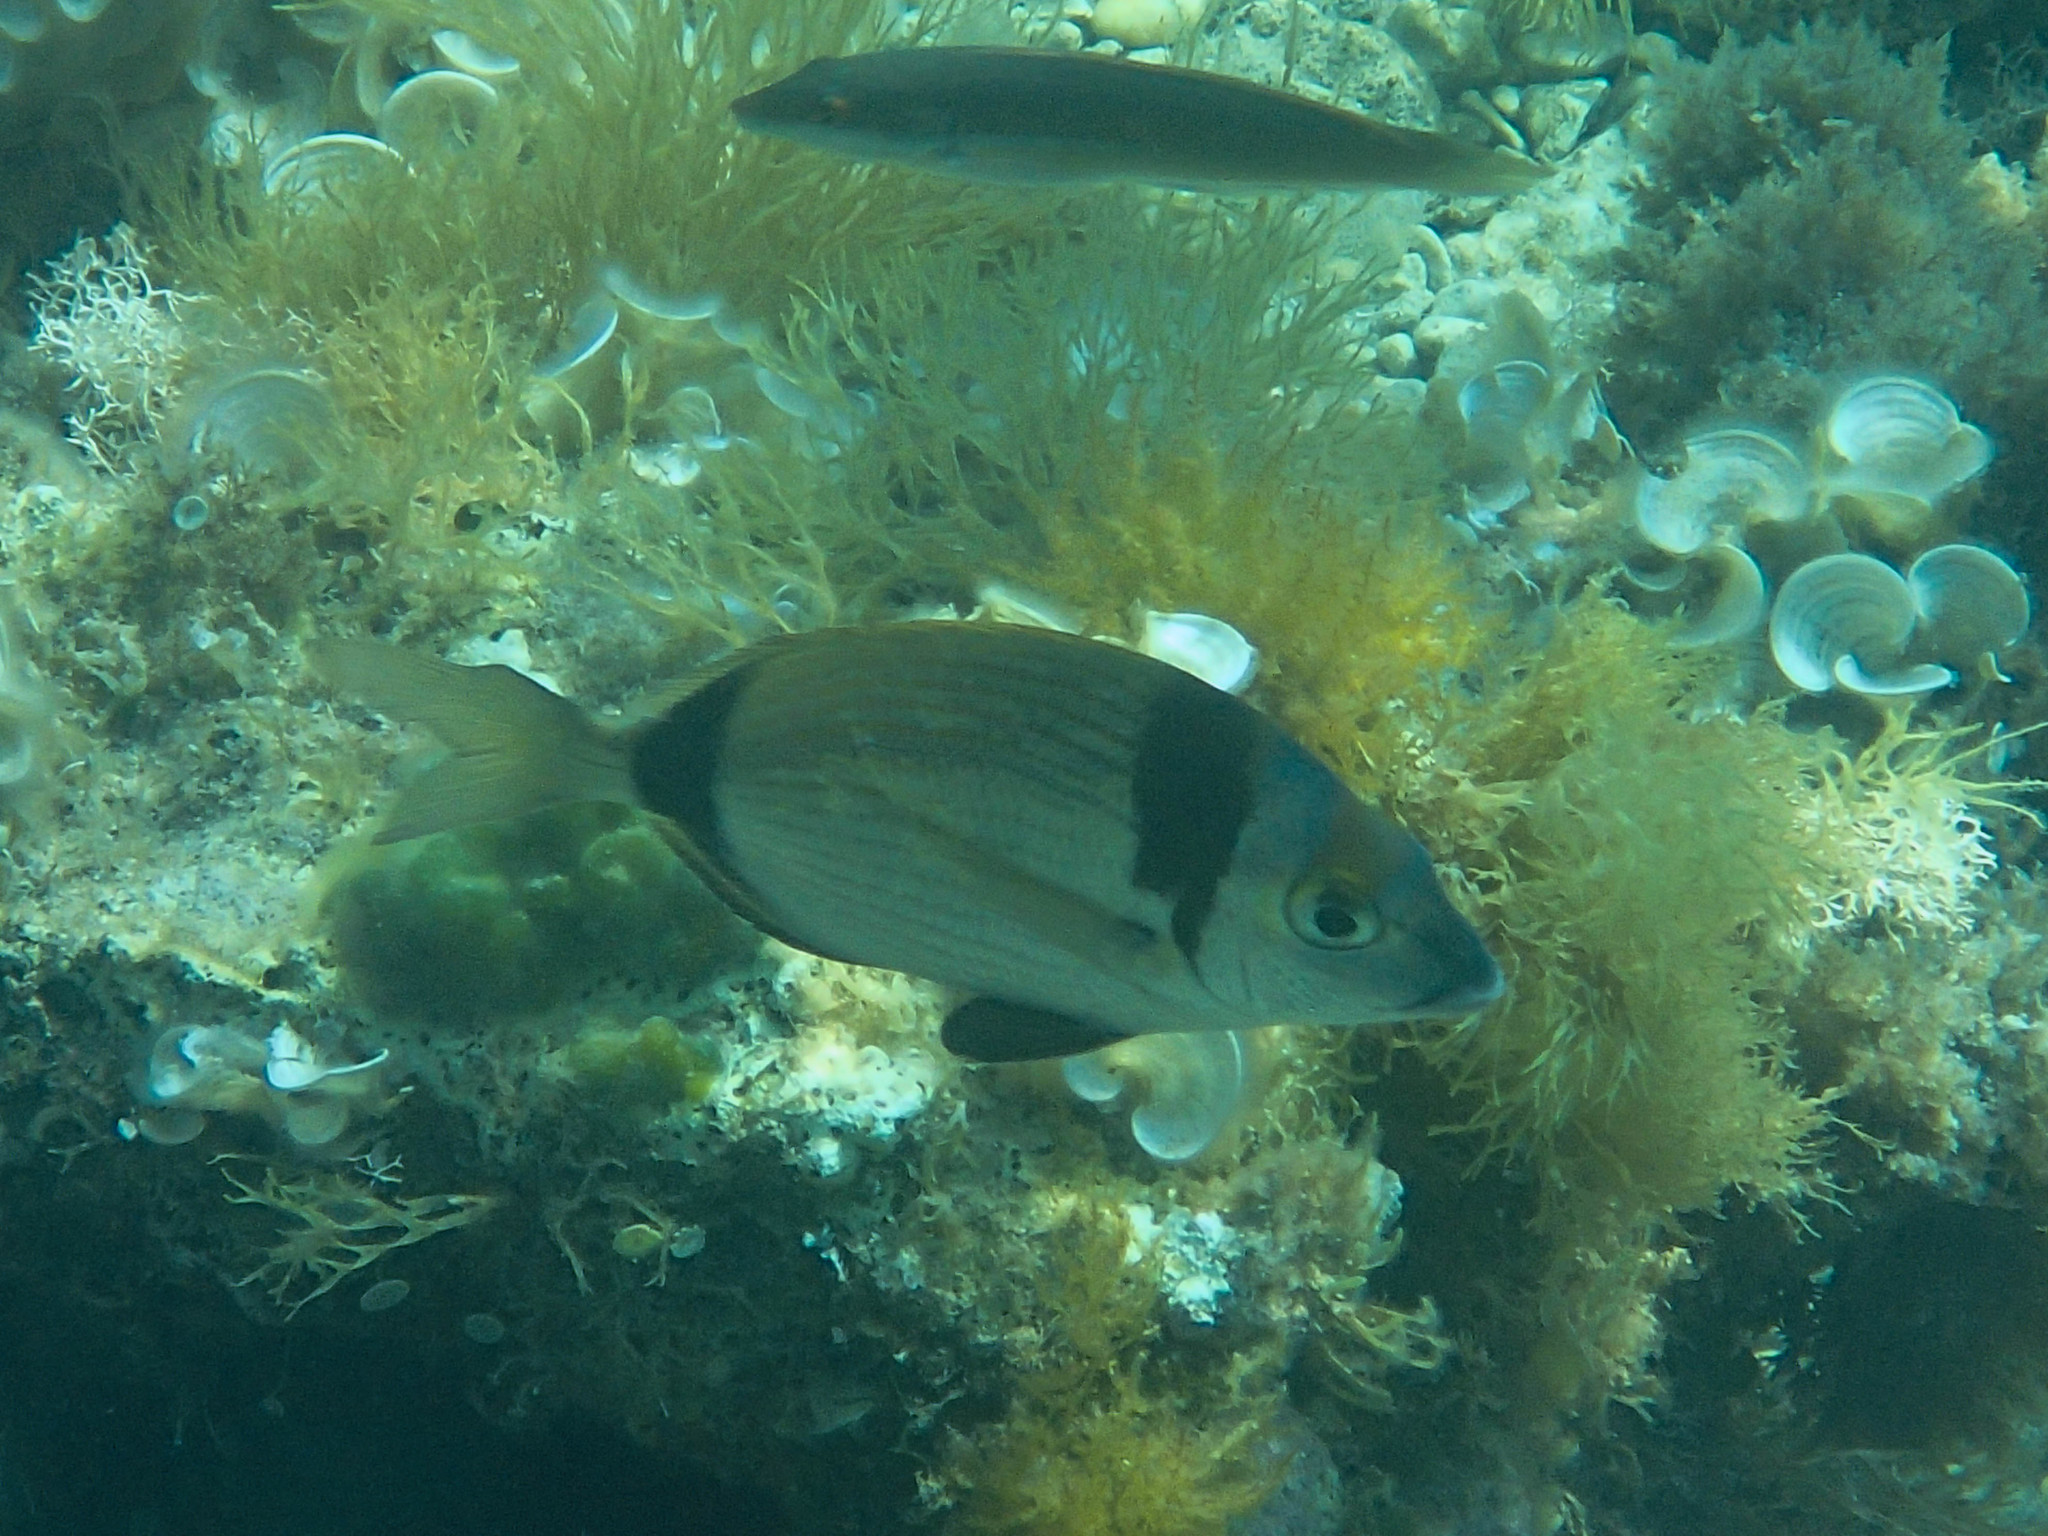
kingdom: Animalia
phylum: Chordata
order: Perciformes
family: Sparidae
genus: Diplodus
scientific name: Diplodus vulgaris
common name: Common two-banded seabream
